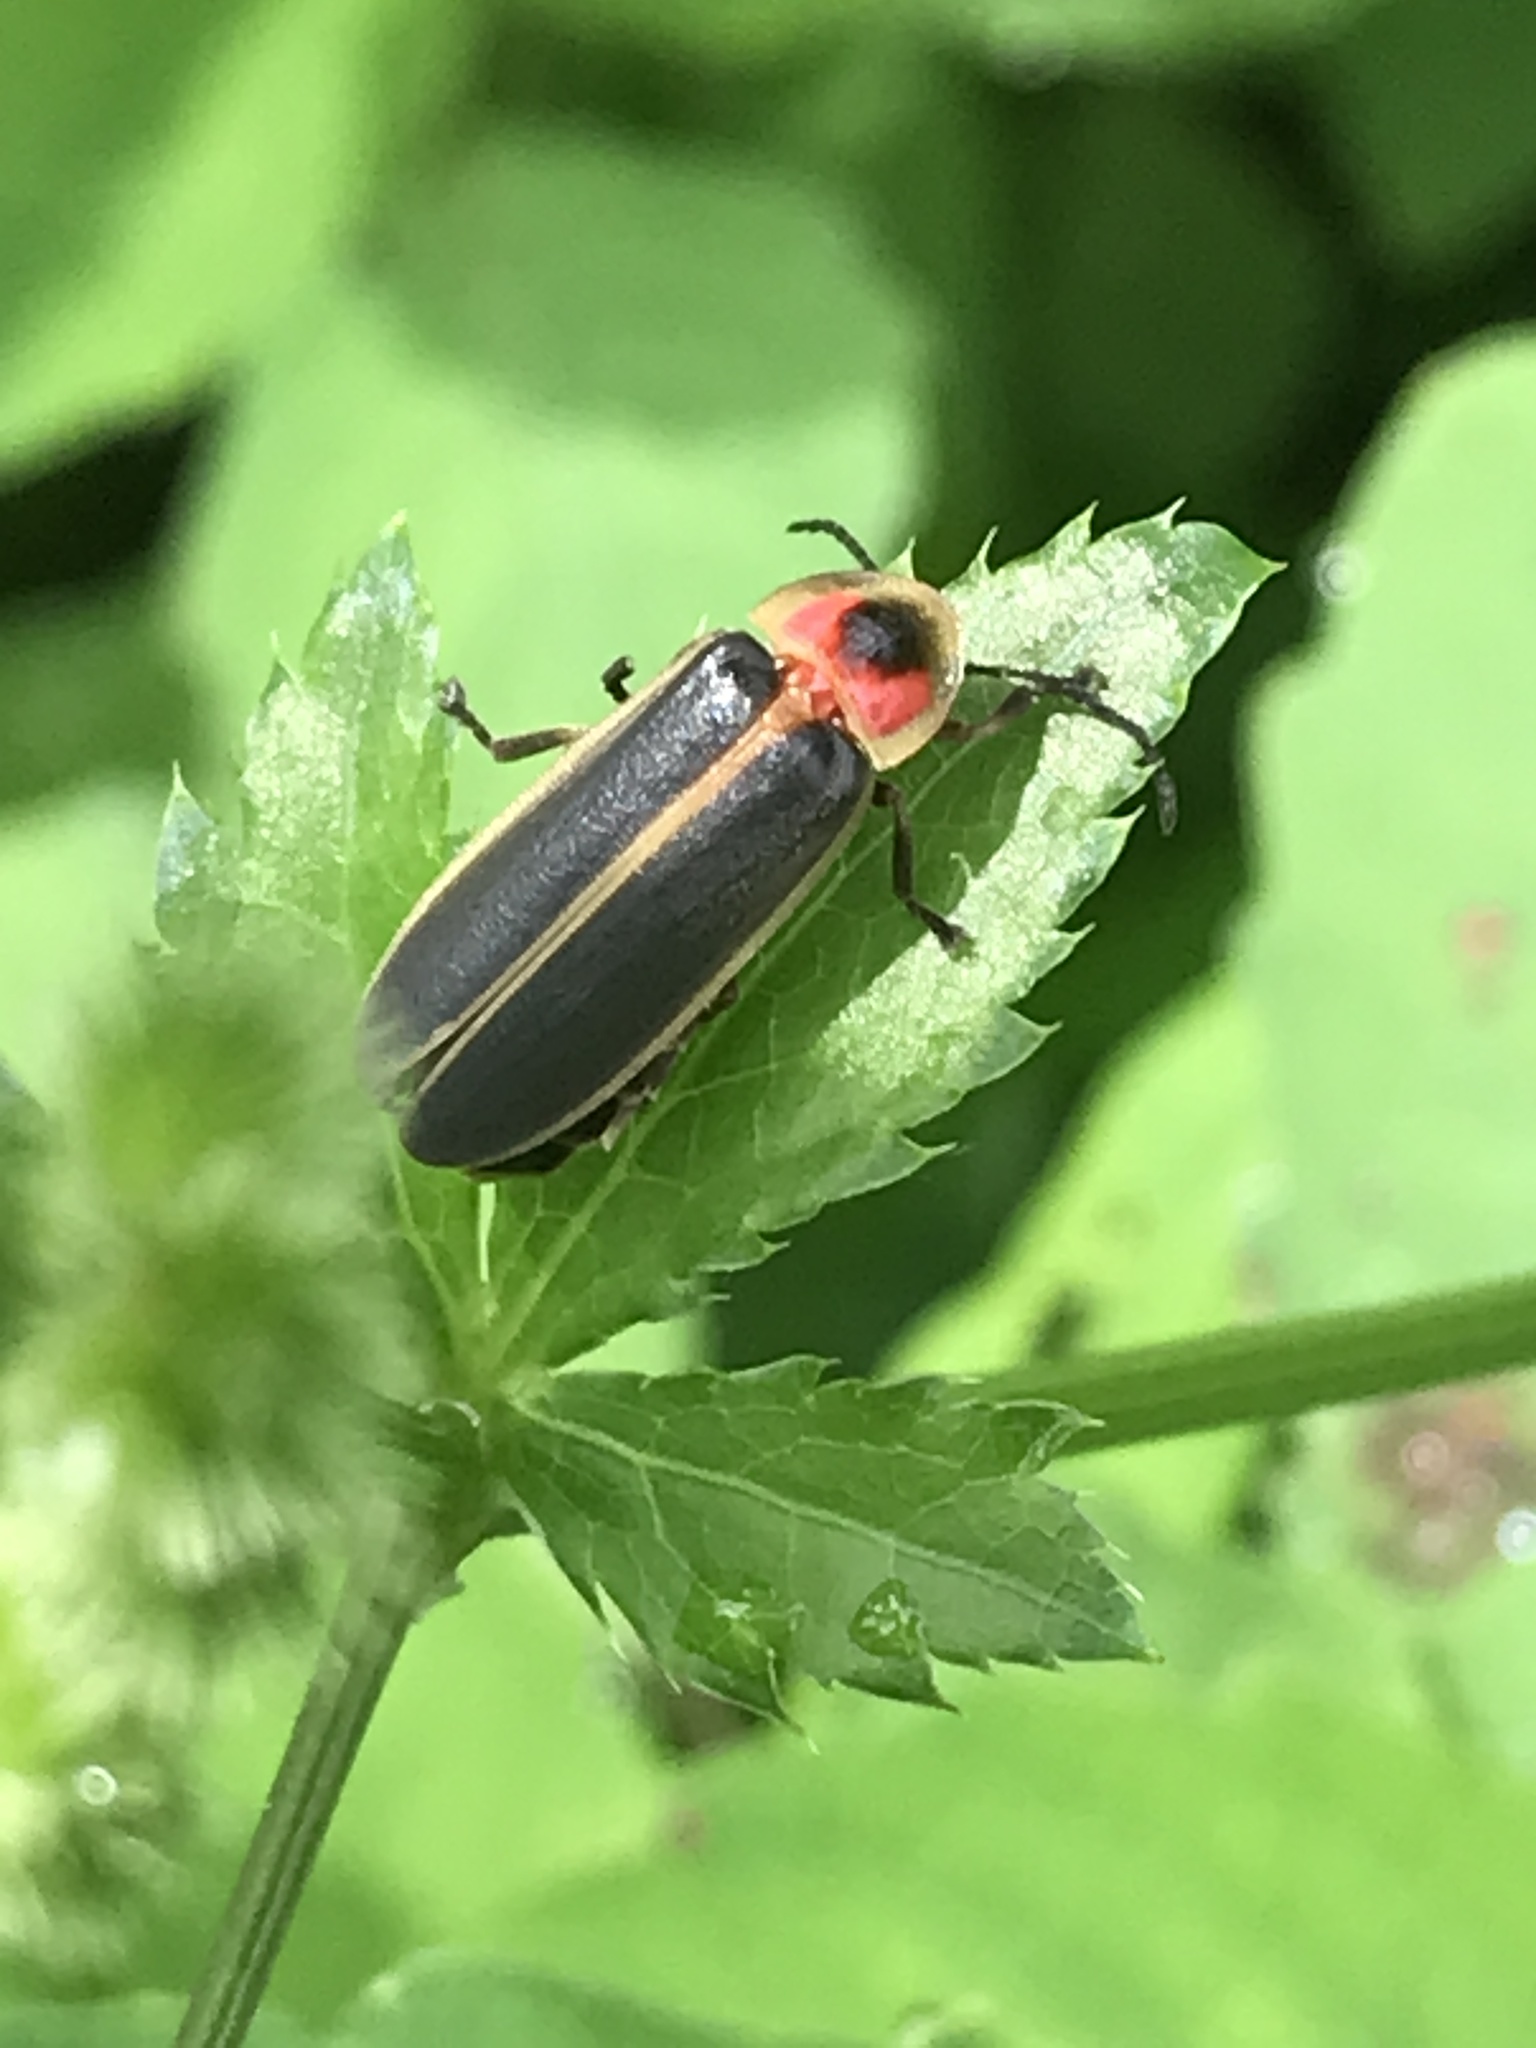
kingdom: Animalia
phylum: Arthropoda
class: Insecta
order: Coleoptera
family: Lampyridae
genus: Photinus
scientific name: Photinus pyralis
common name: Big dipper firefly
